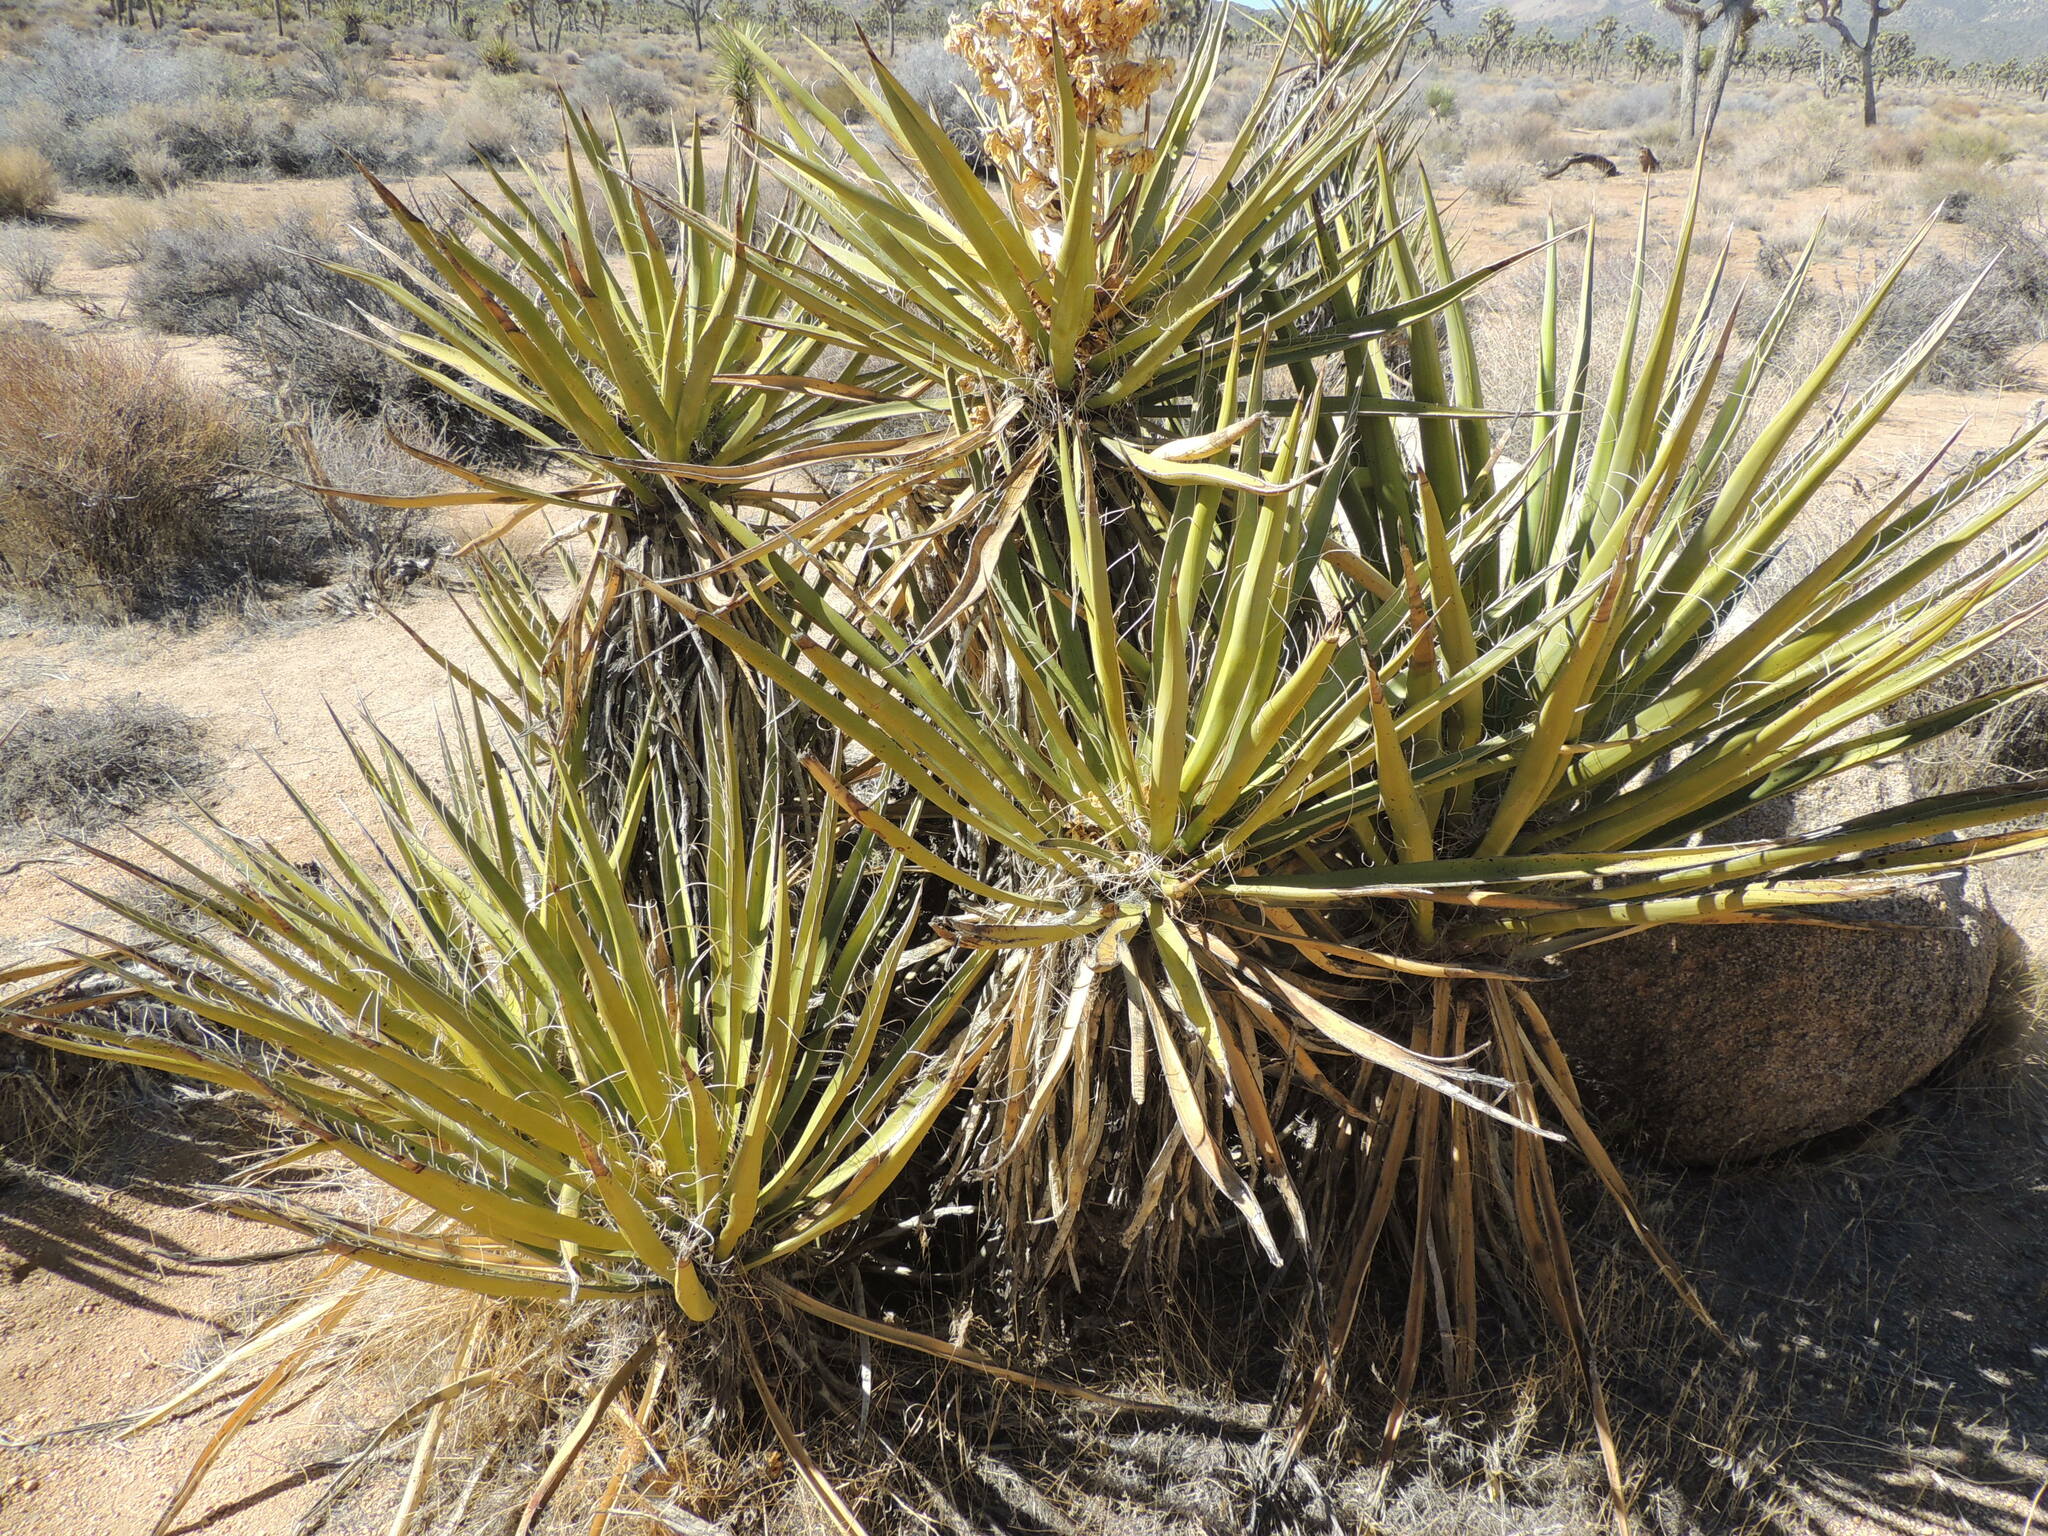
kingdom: Plantae
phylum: Tracheophyta
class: Liliopsida
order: Asparagales
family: Asparagaceae
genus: Yucca
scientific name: Yucca schidigera
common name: Mojave yucca
